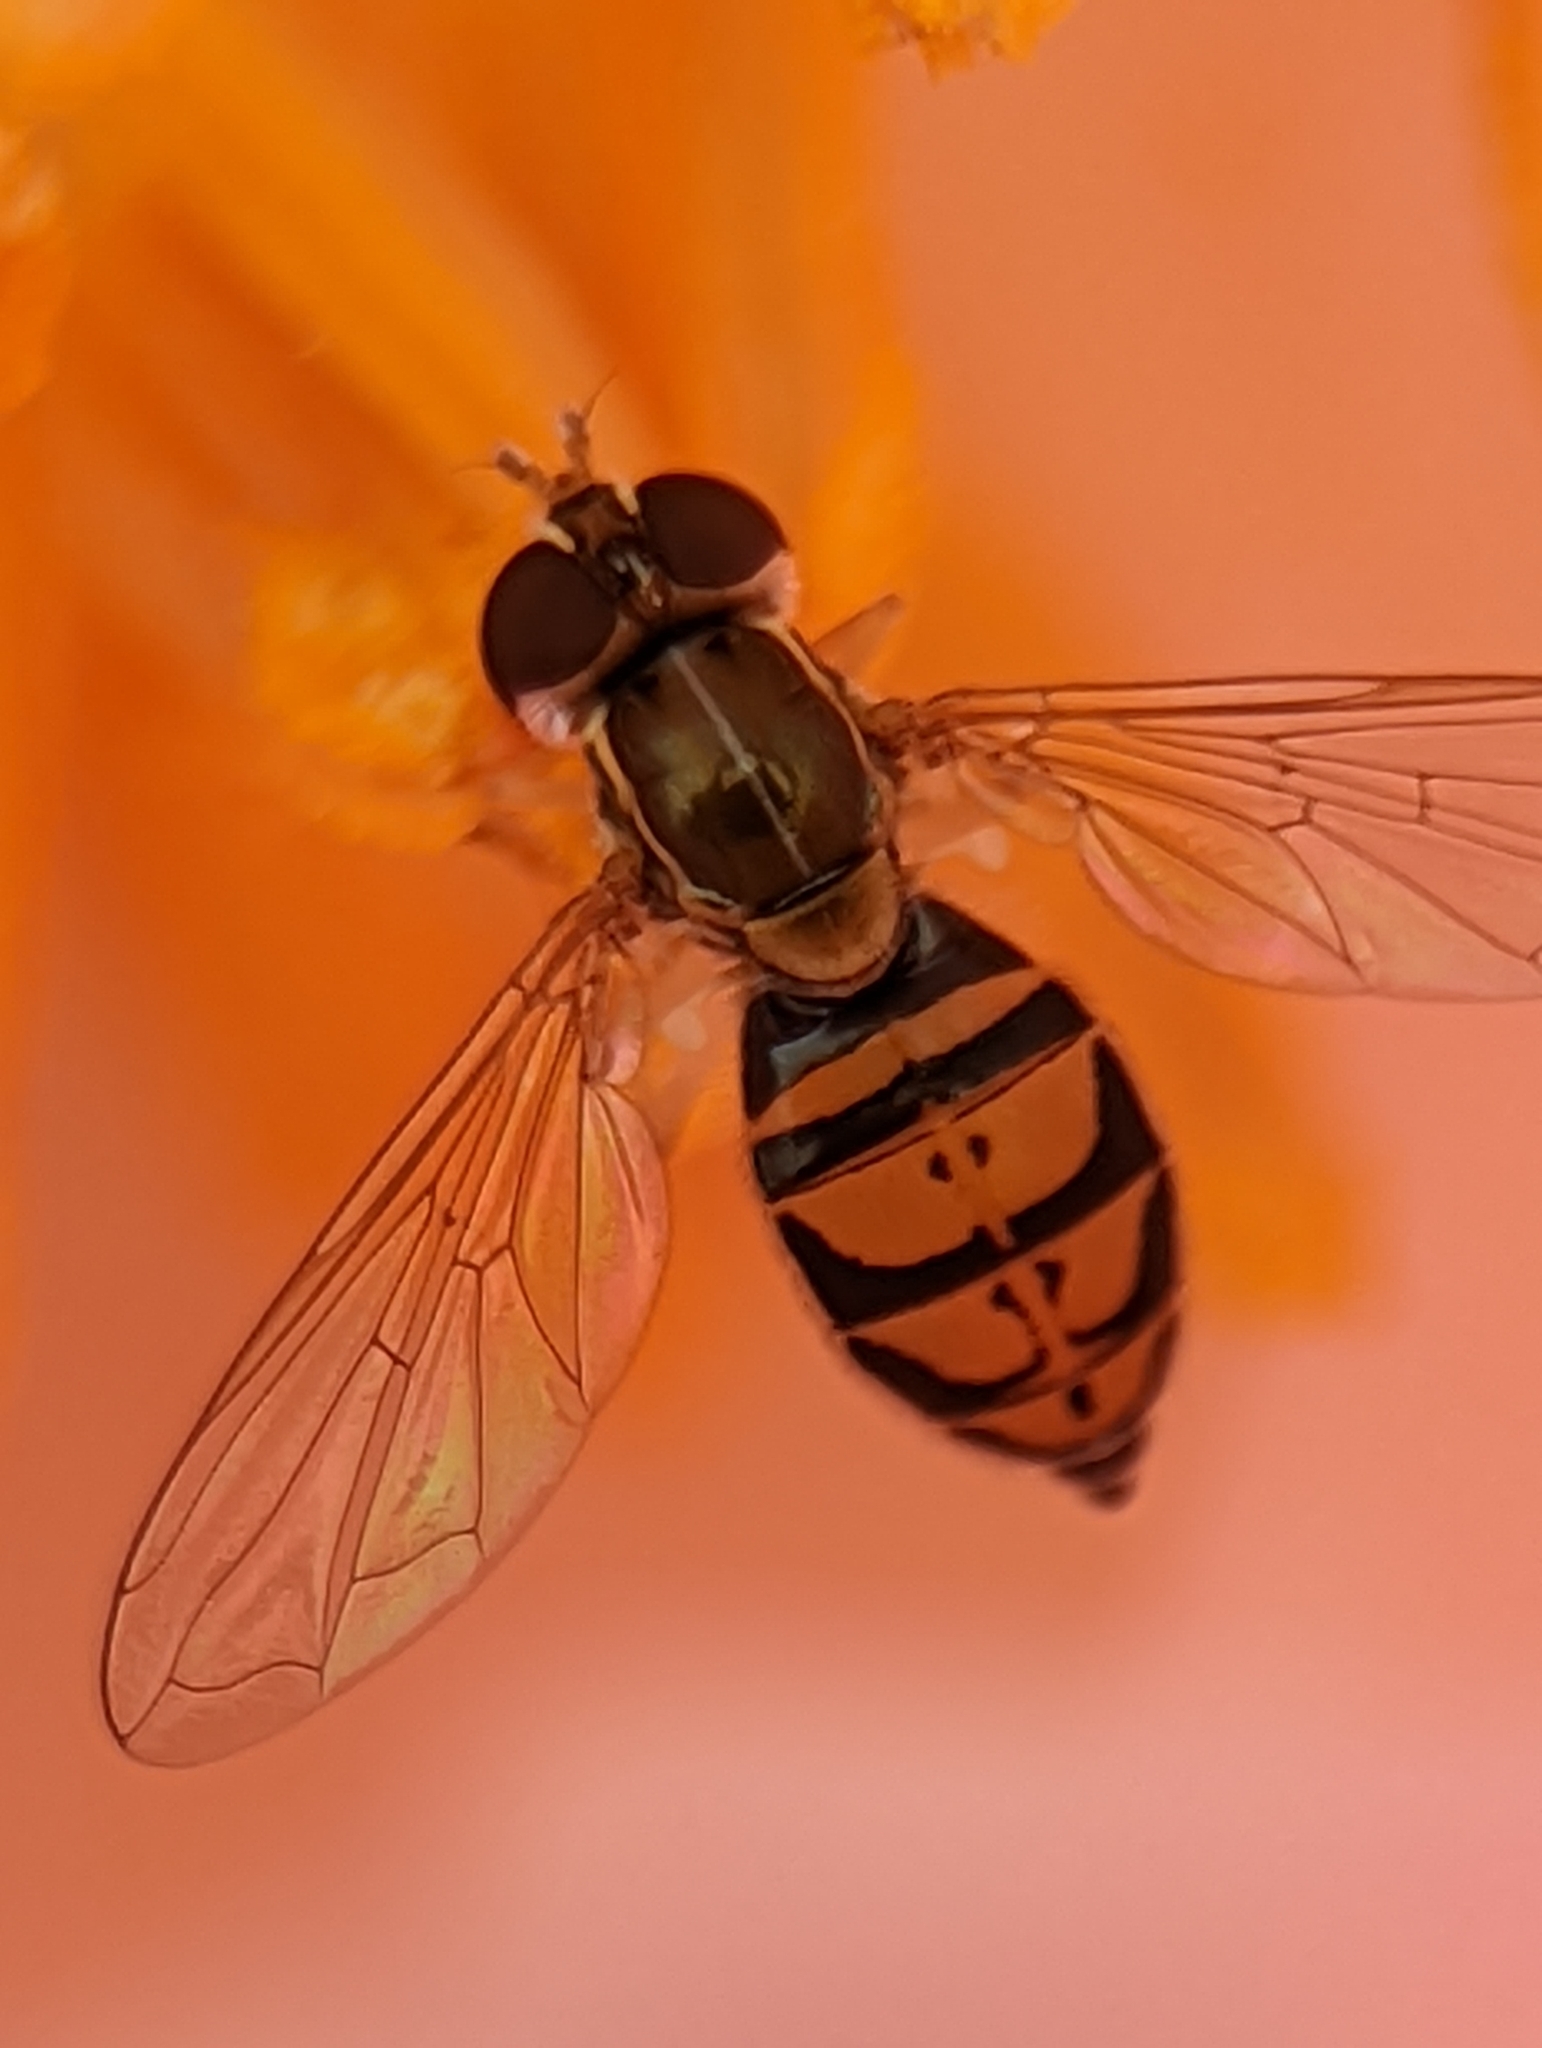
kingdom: Animalia
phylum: Arthropoda
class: Insecta
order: Diptera
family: Syrphidae
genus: Toxomerus
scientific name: Toxomerus marginatus
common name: Syrphid fly
